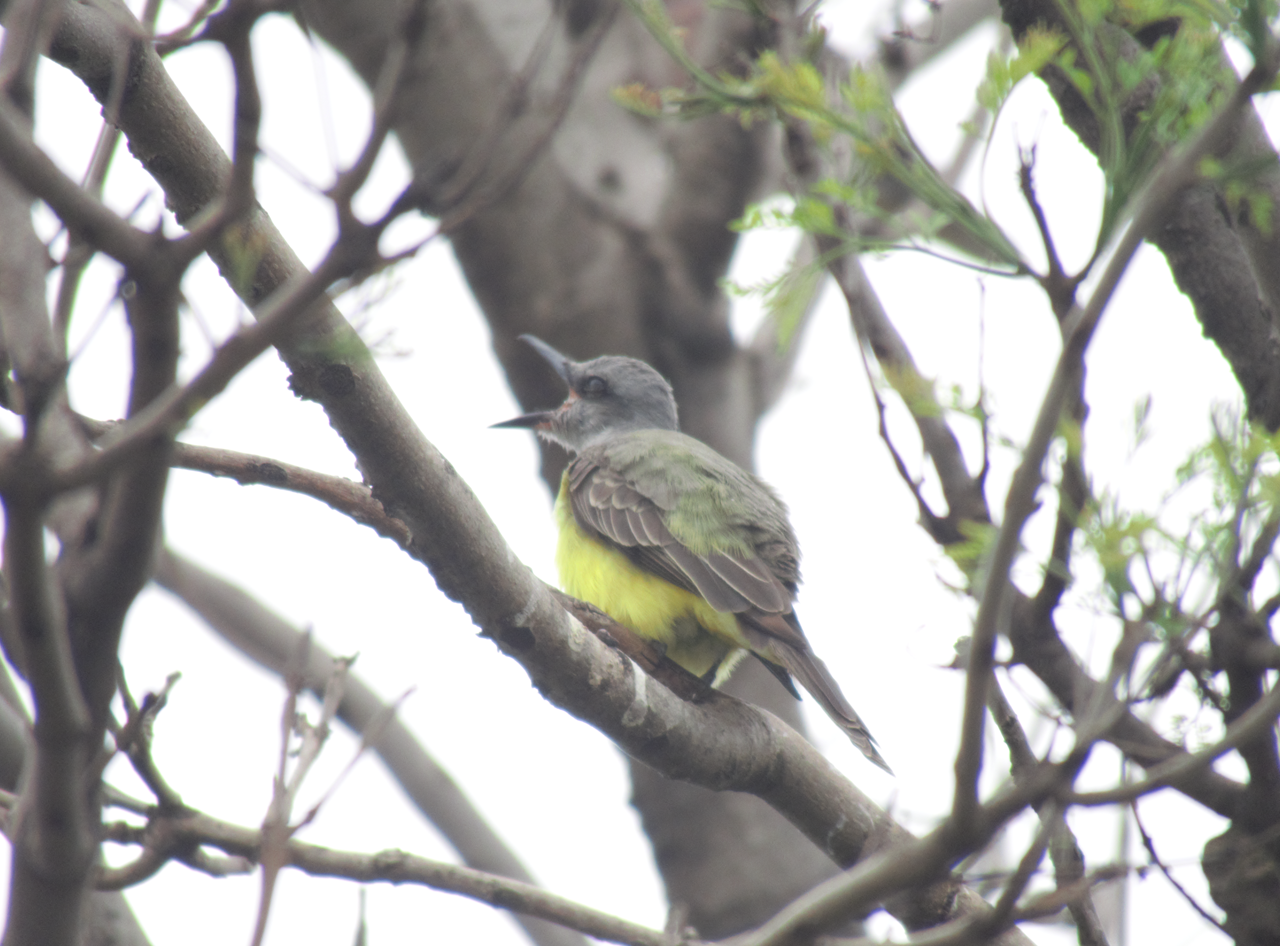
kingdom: Animalia
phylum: Chordata
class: Aves
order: Passeriformes
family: Tyrannidae
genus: Tyrannus
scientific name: Tyrannus melancholicus
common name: Tropical kingbird
